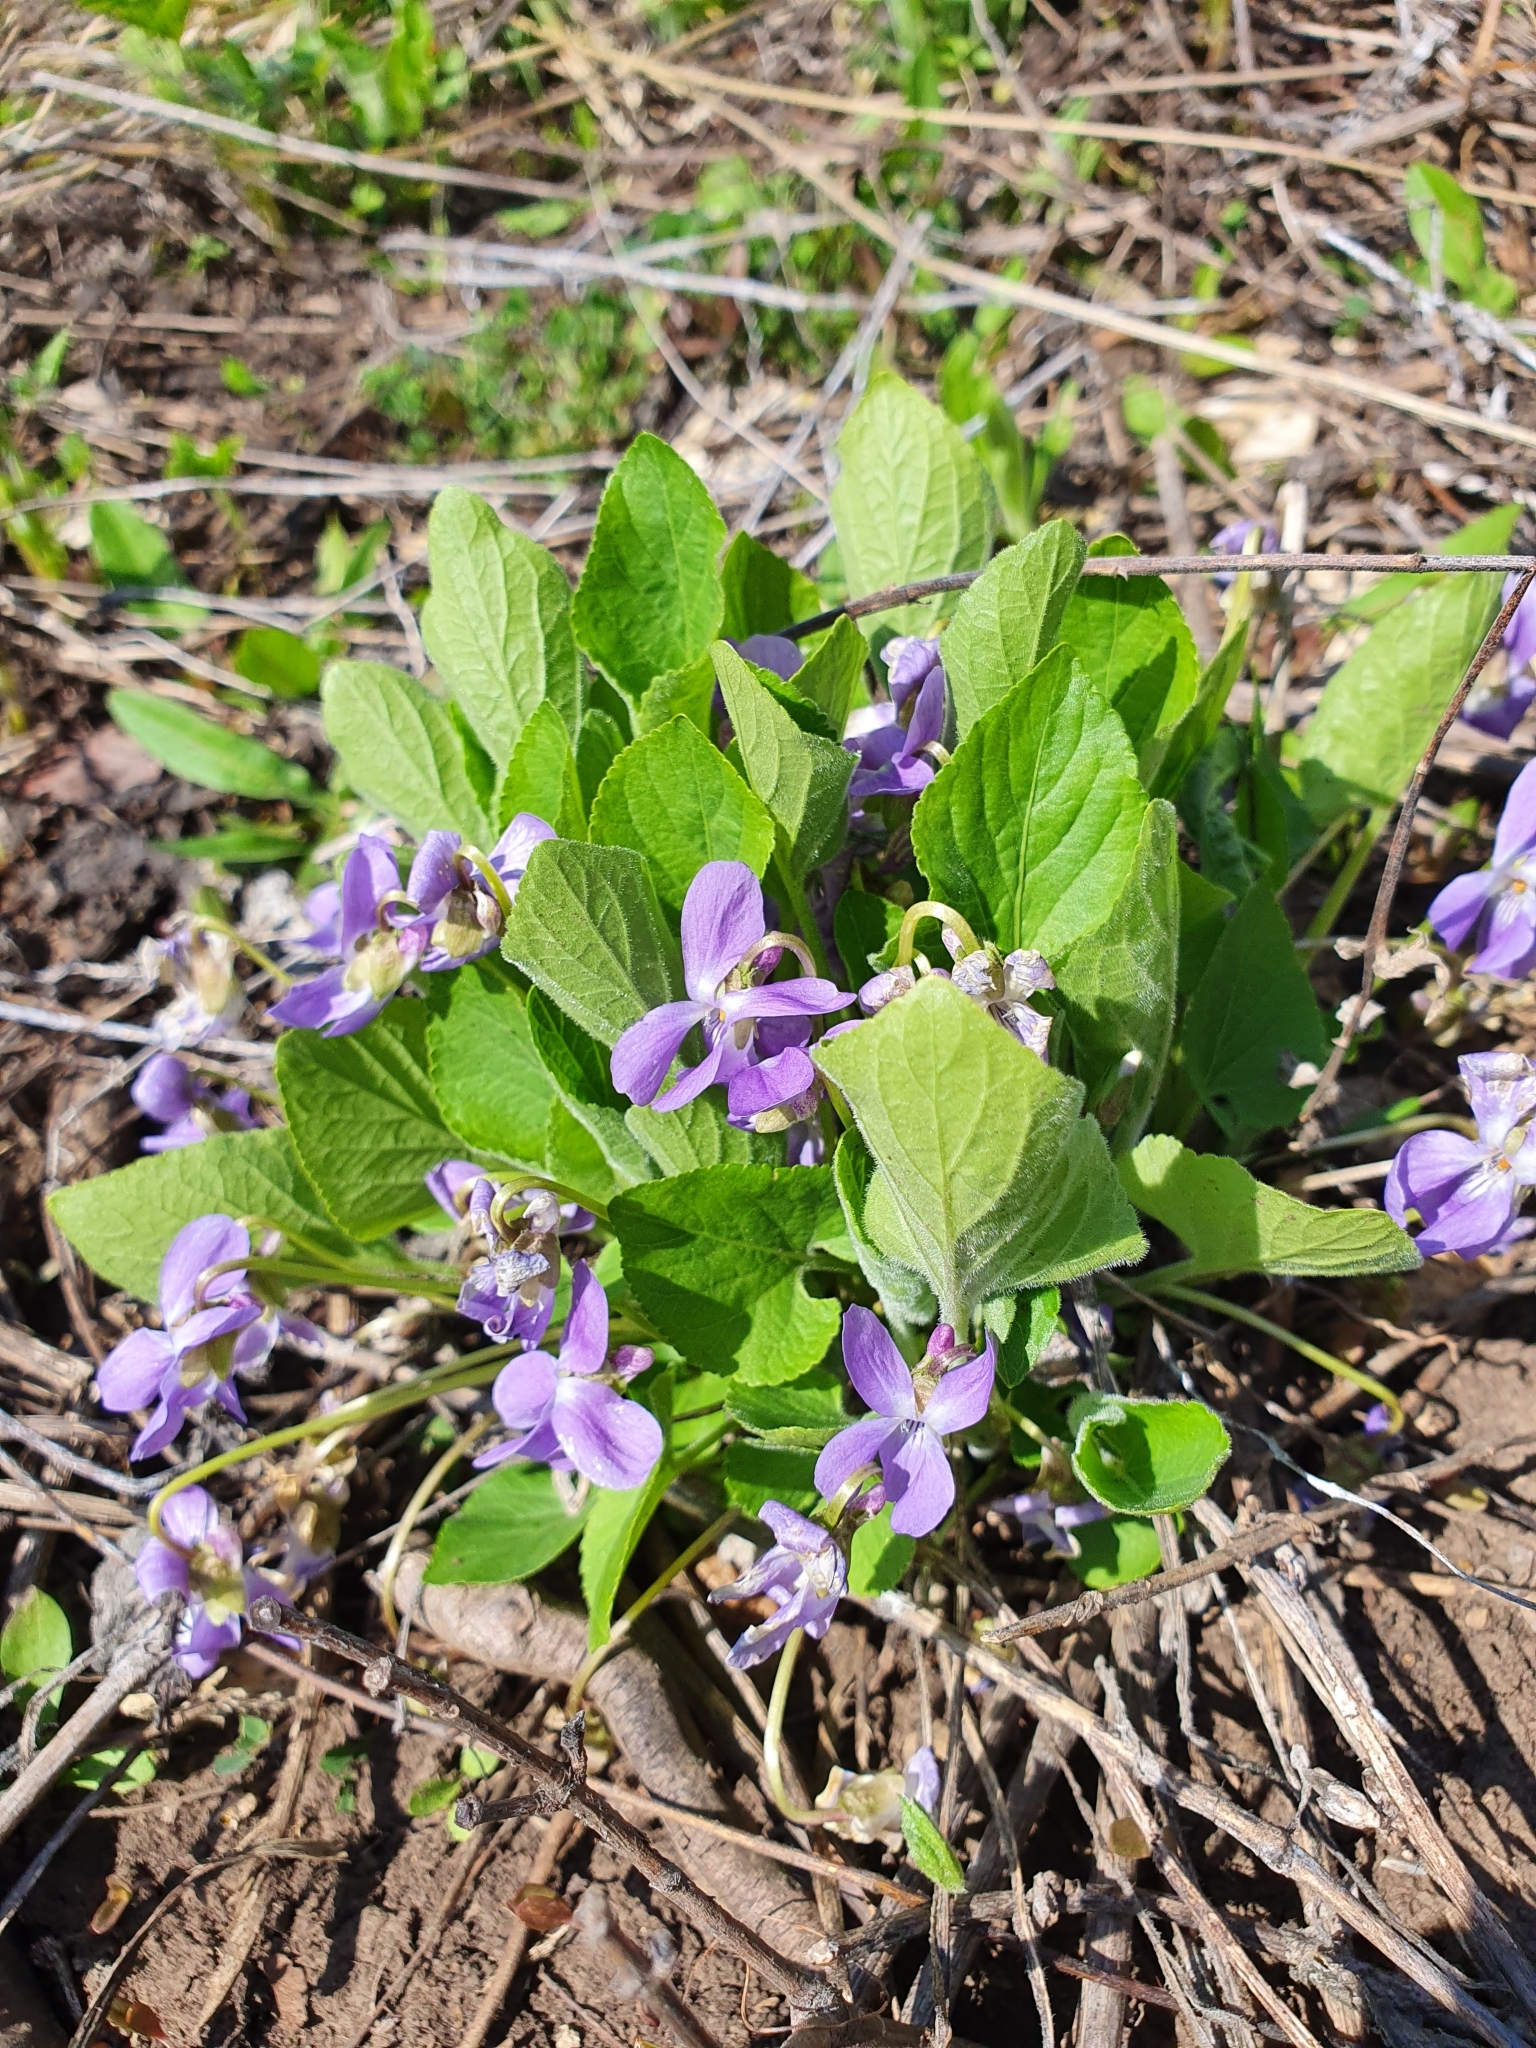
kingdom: Plantae
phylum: Tracheophyta
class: Magnoliopsida
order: Malpighiales
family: Violaceae
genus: Viola
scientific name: Viola hirta
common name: Hairy violet
